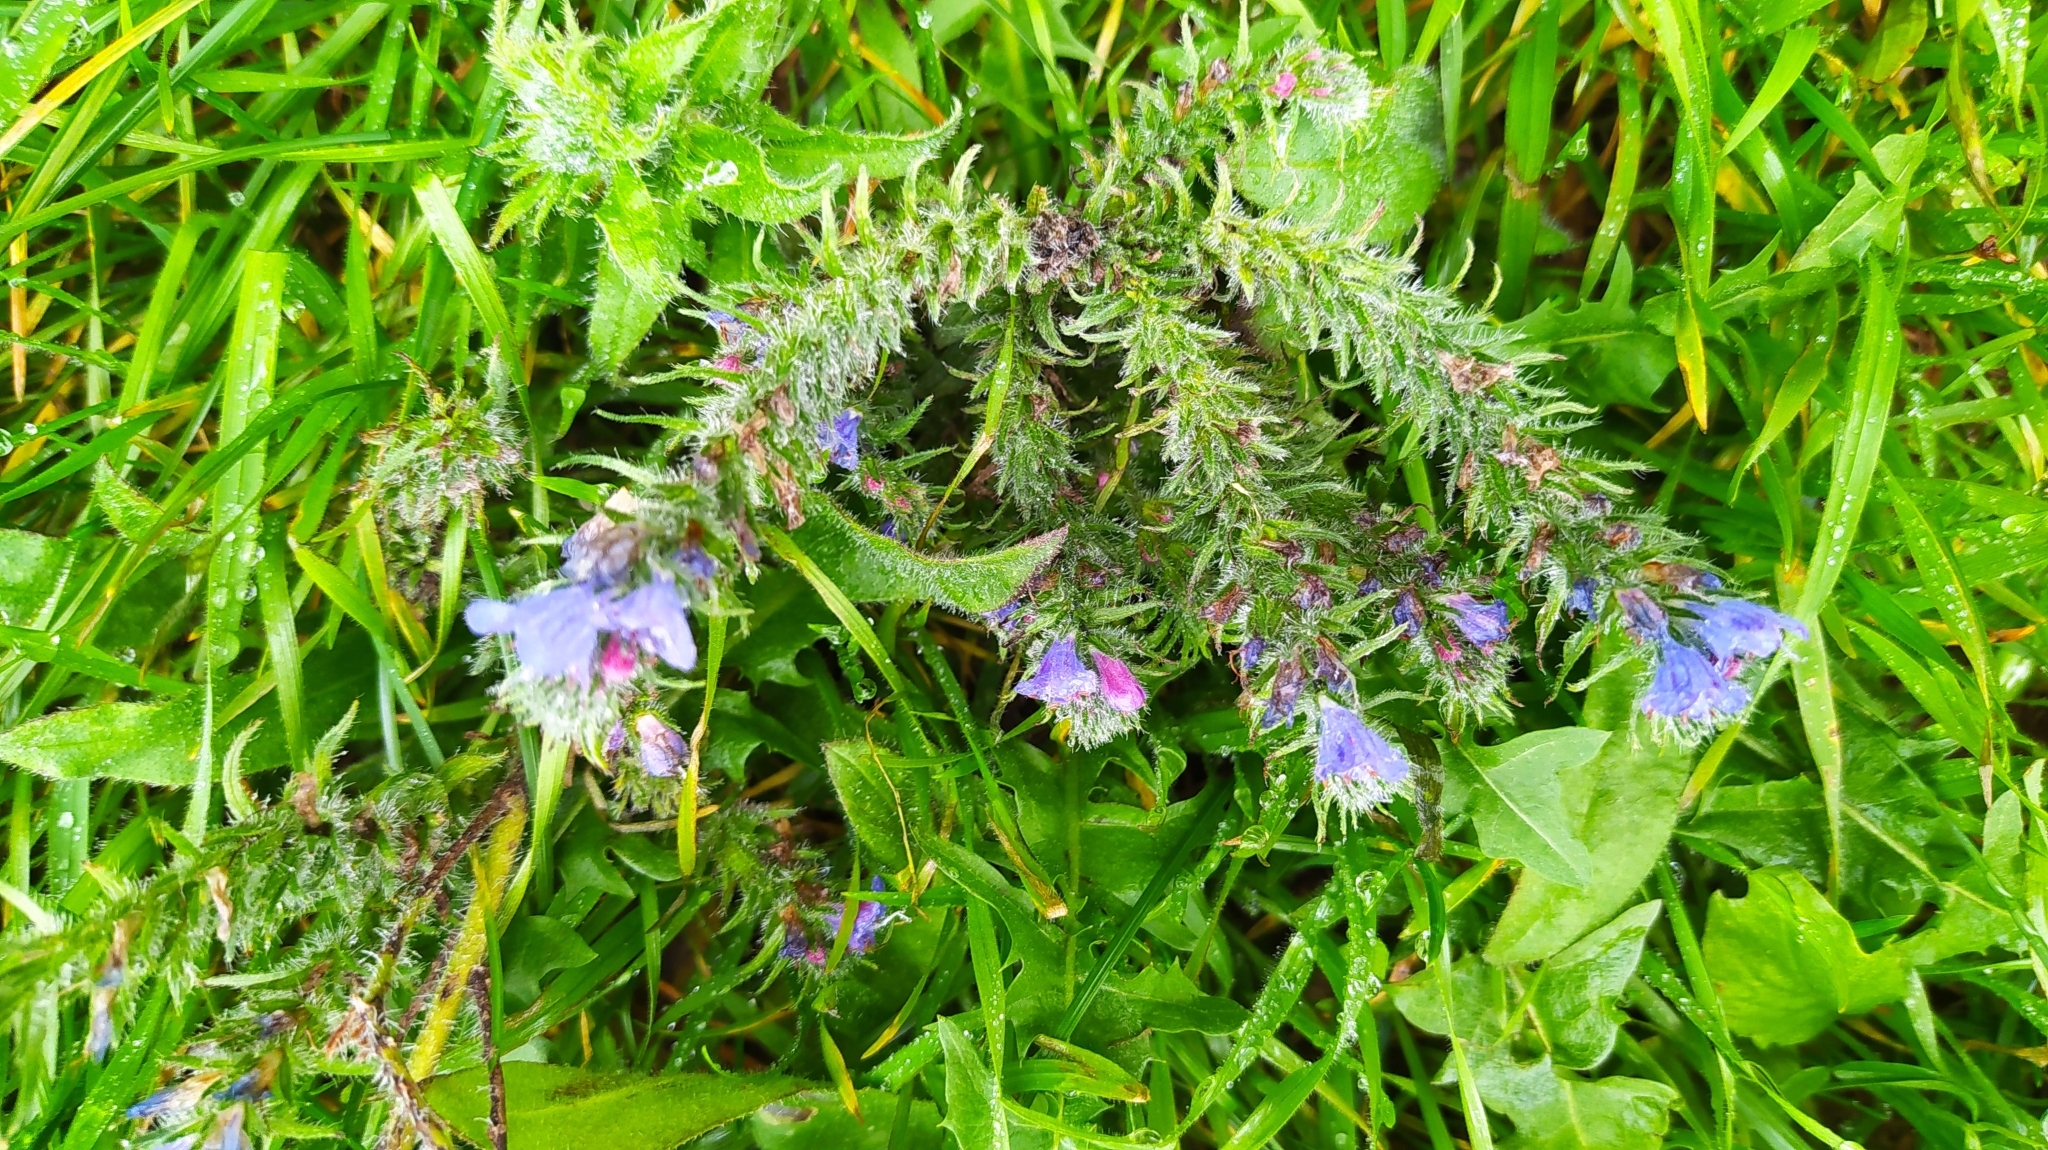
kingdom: Plantae
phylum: Tracheophyta
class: Magnoliopsida
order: Boraginales
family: Boraginaceae
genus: Echium
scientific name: Echium vulgare
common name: Common viper's bugloss
